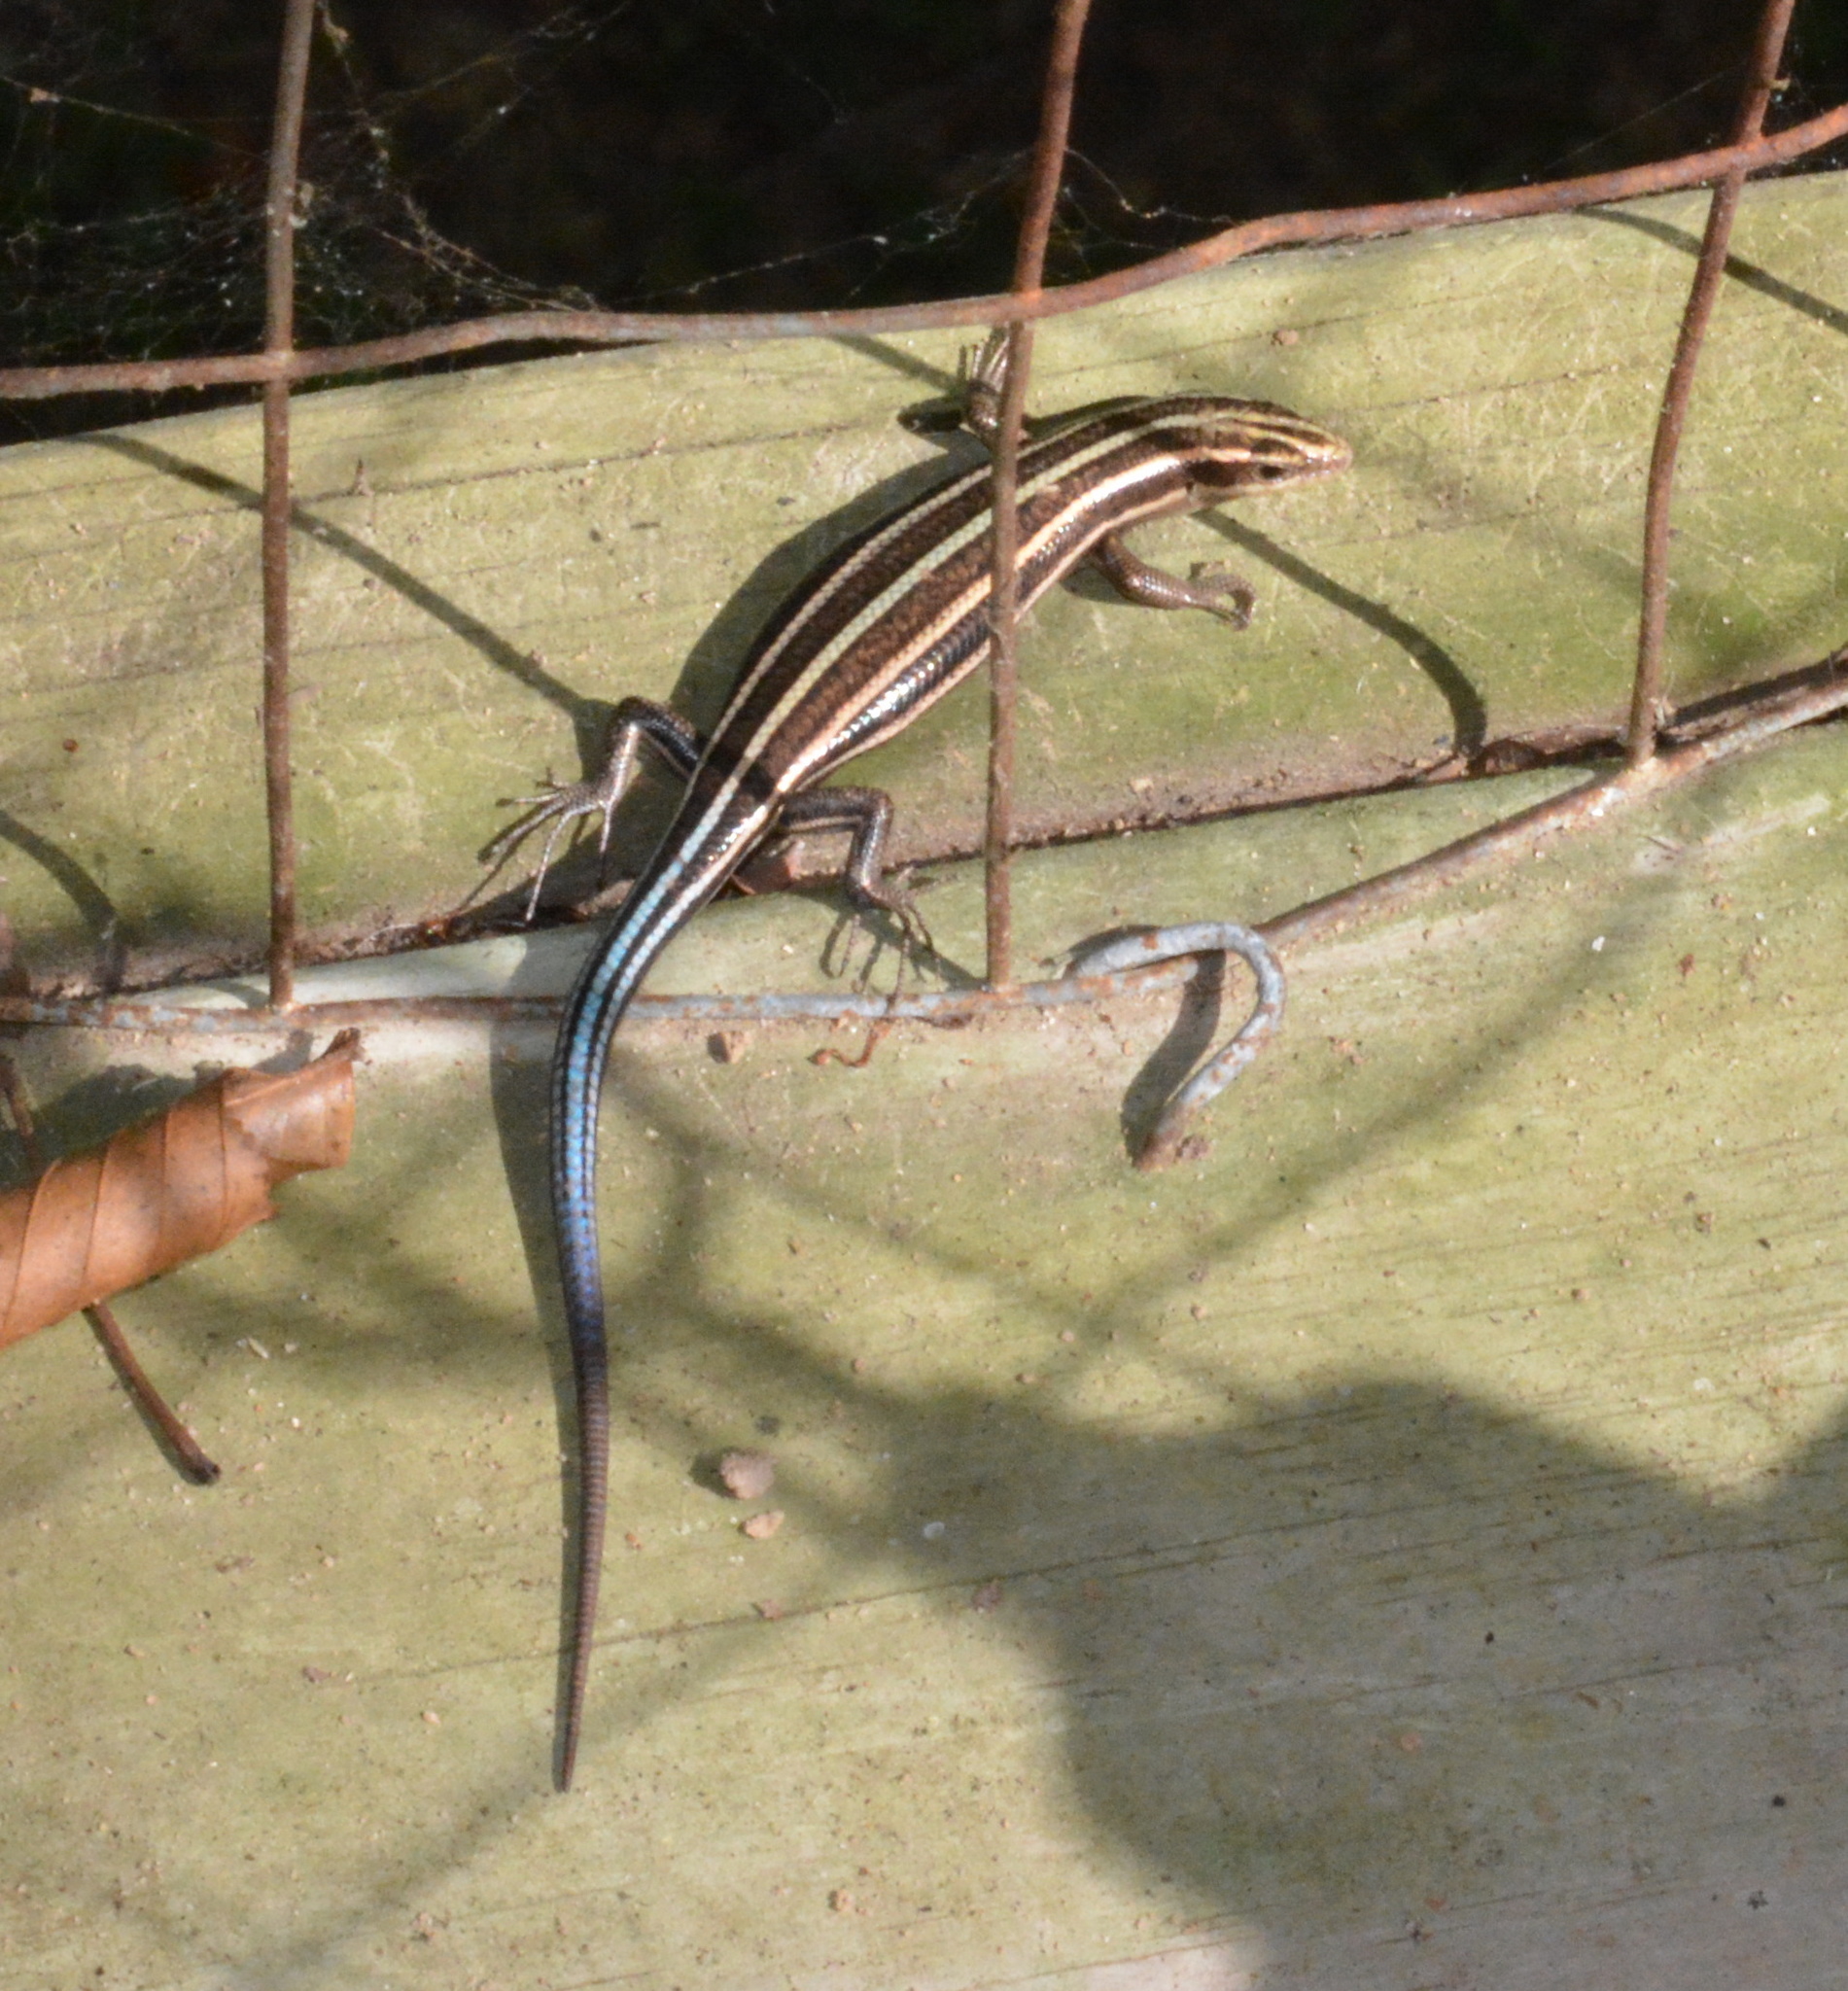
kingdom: Animalia
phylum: Chordata
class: Squamata
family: Scincidae
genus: Plestiodon
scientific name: Plestiodon fasciatus
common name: Five-lined skink
